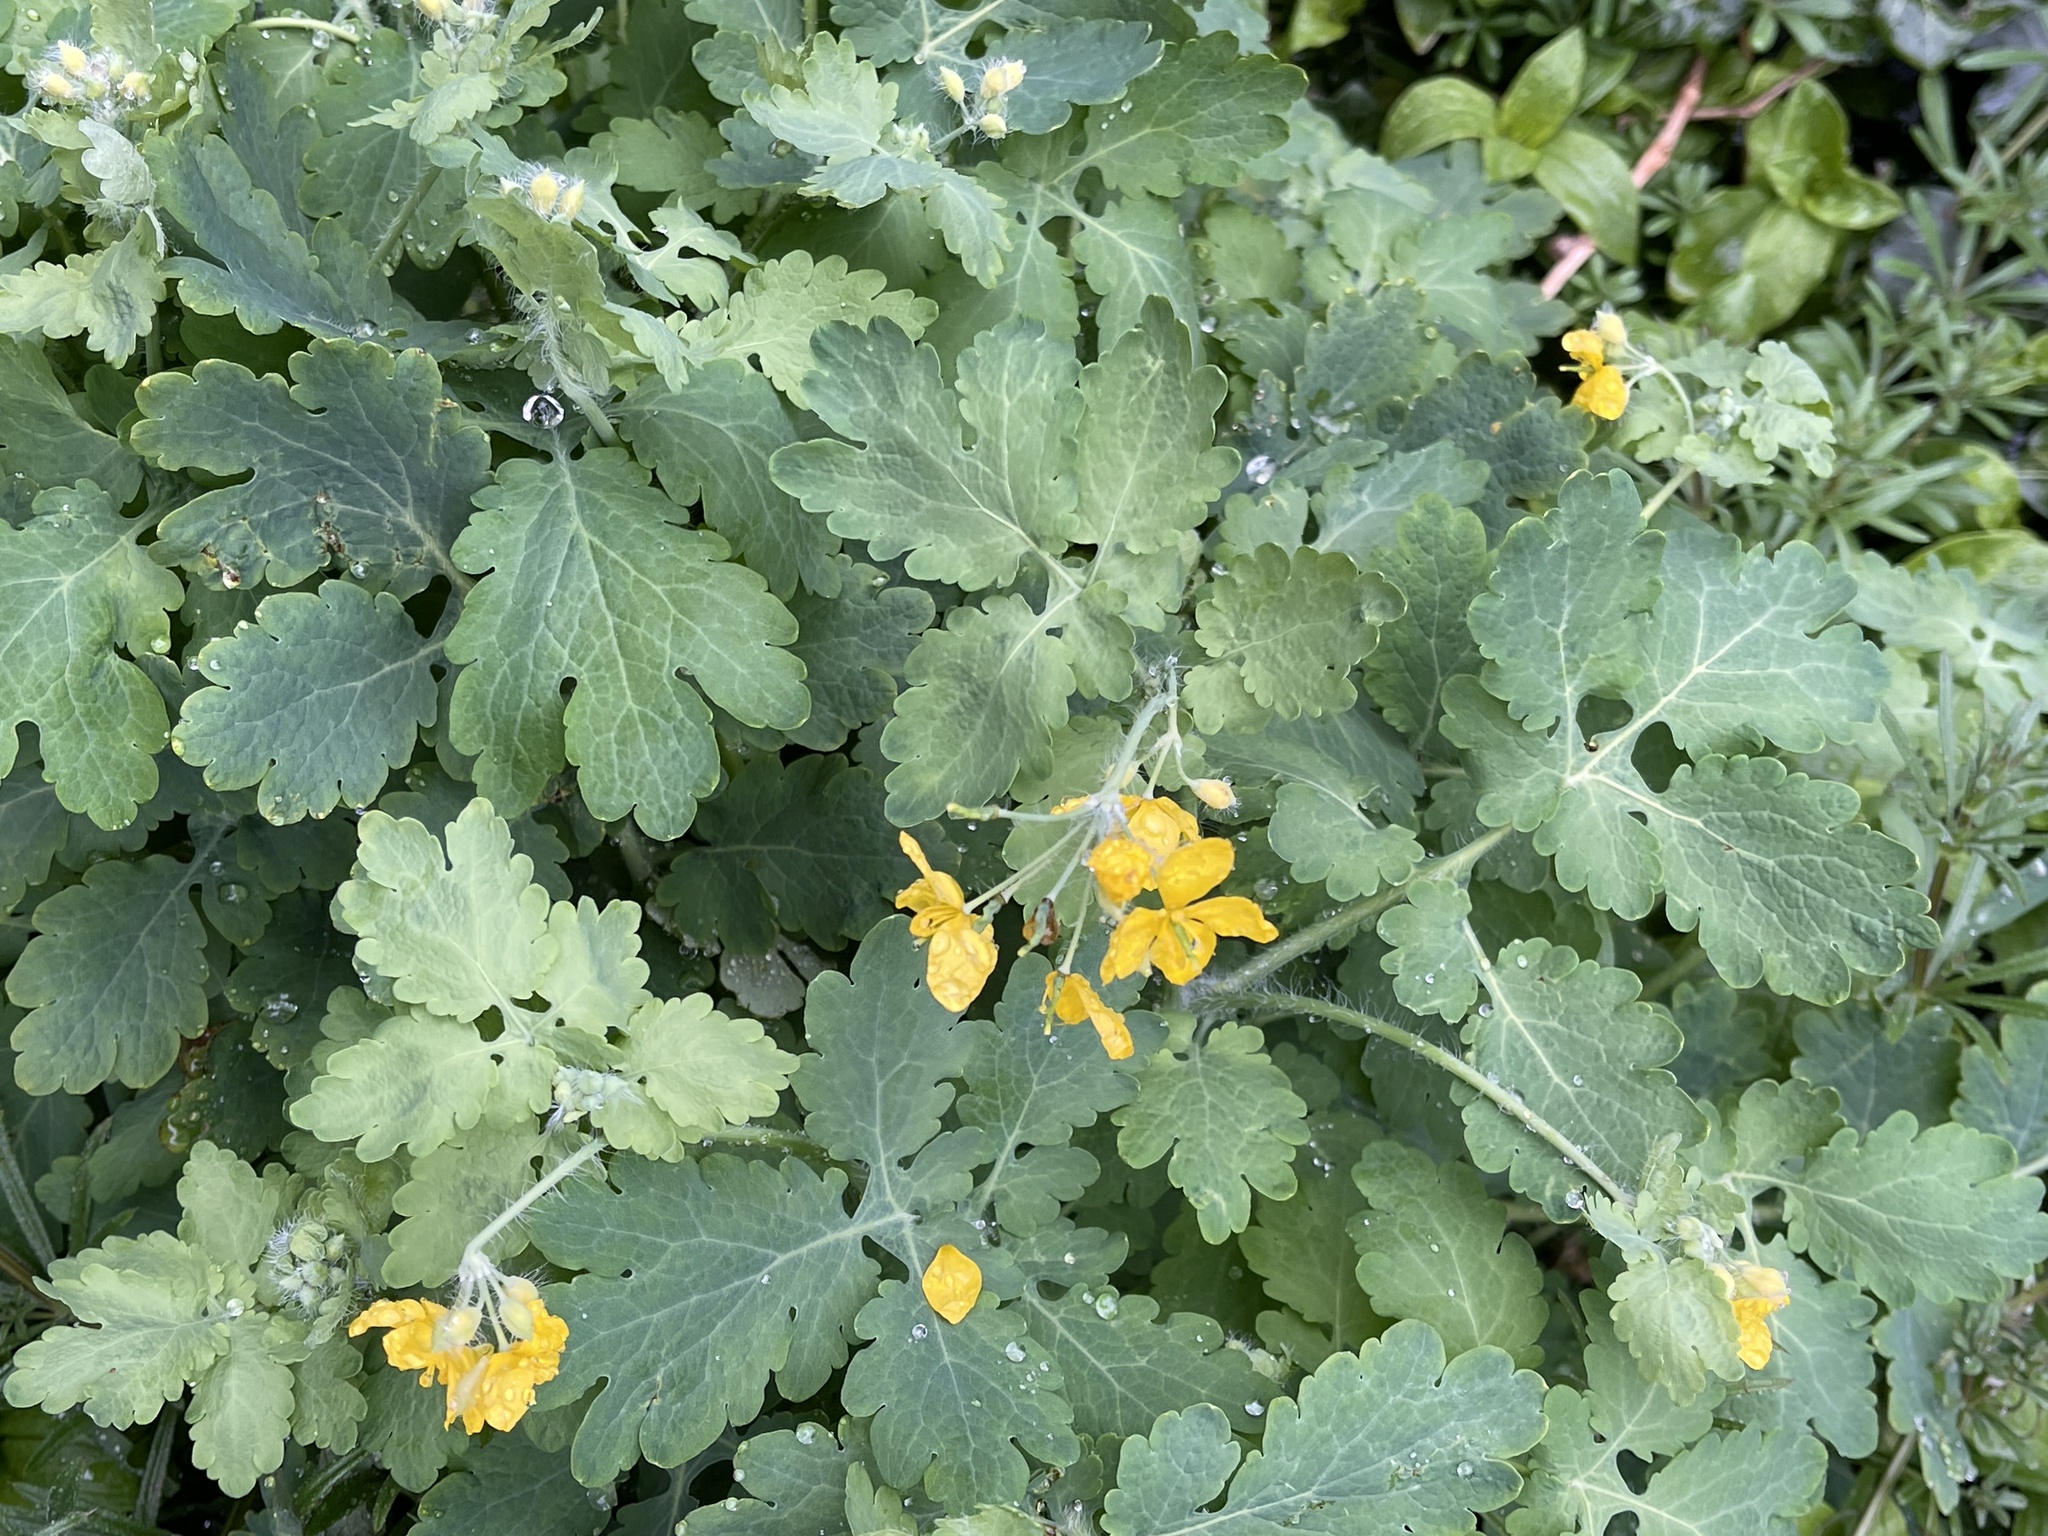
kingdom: Plantae
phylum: Tracheophyta
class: Magnoliopsida
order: Ranunculales
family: Papaveraceae
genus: Chelidonium
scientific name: Chelidonium majus
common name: Greater celandine
